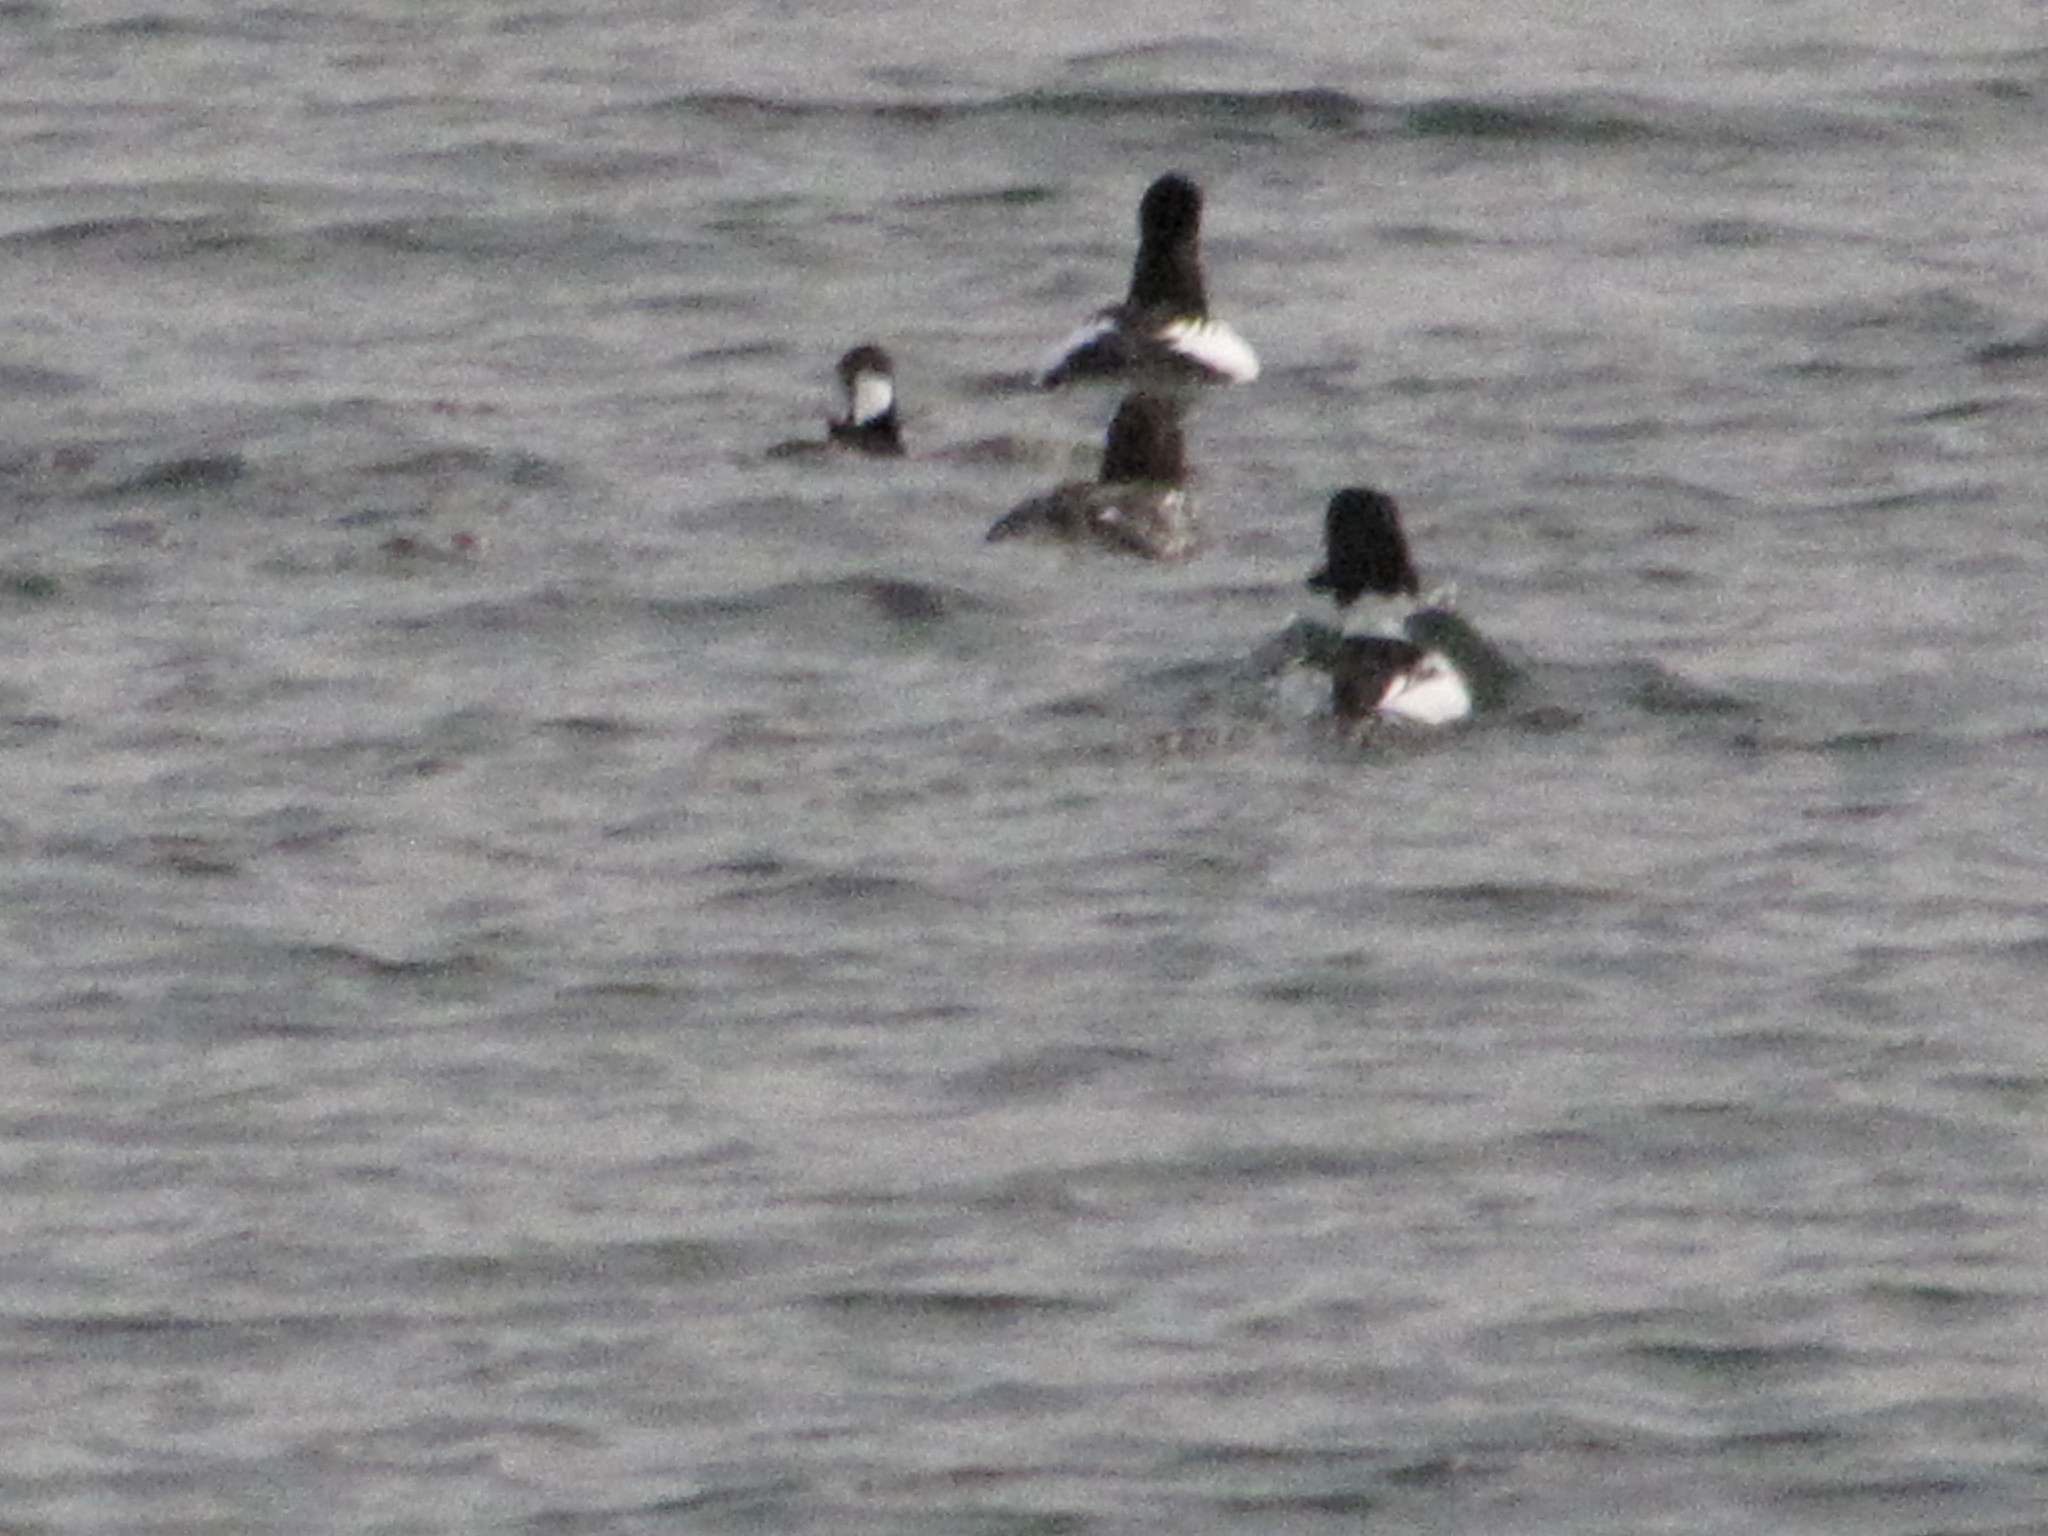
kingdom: Animalia
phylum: Chordata
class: Aves
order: Anseriformes
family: Anatidae
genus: Bucephala
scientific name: Bucephala clangula
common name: Common goldeneye
